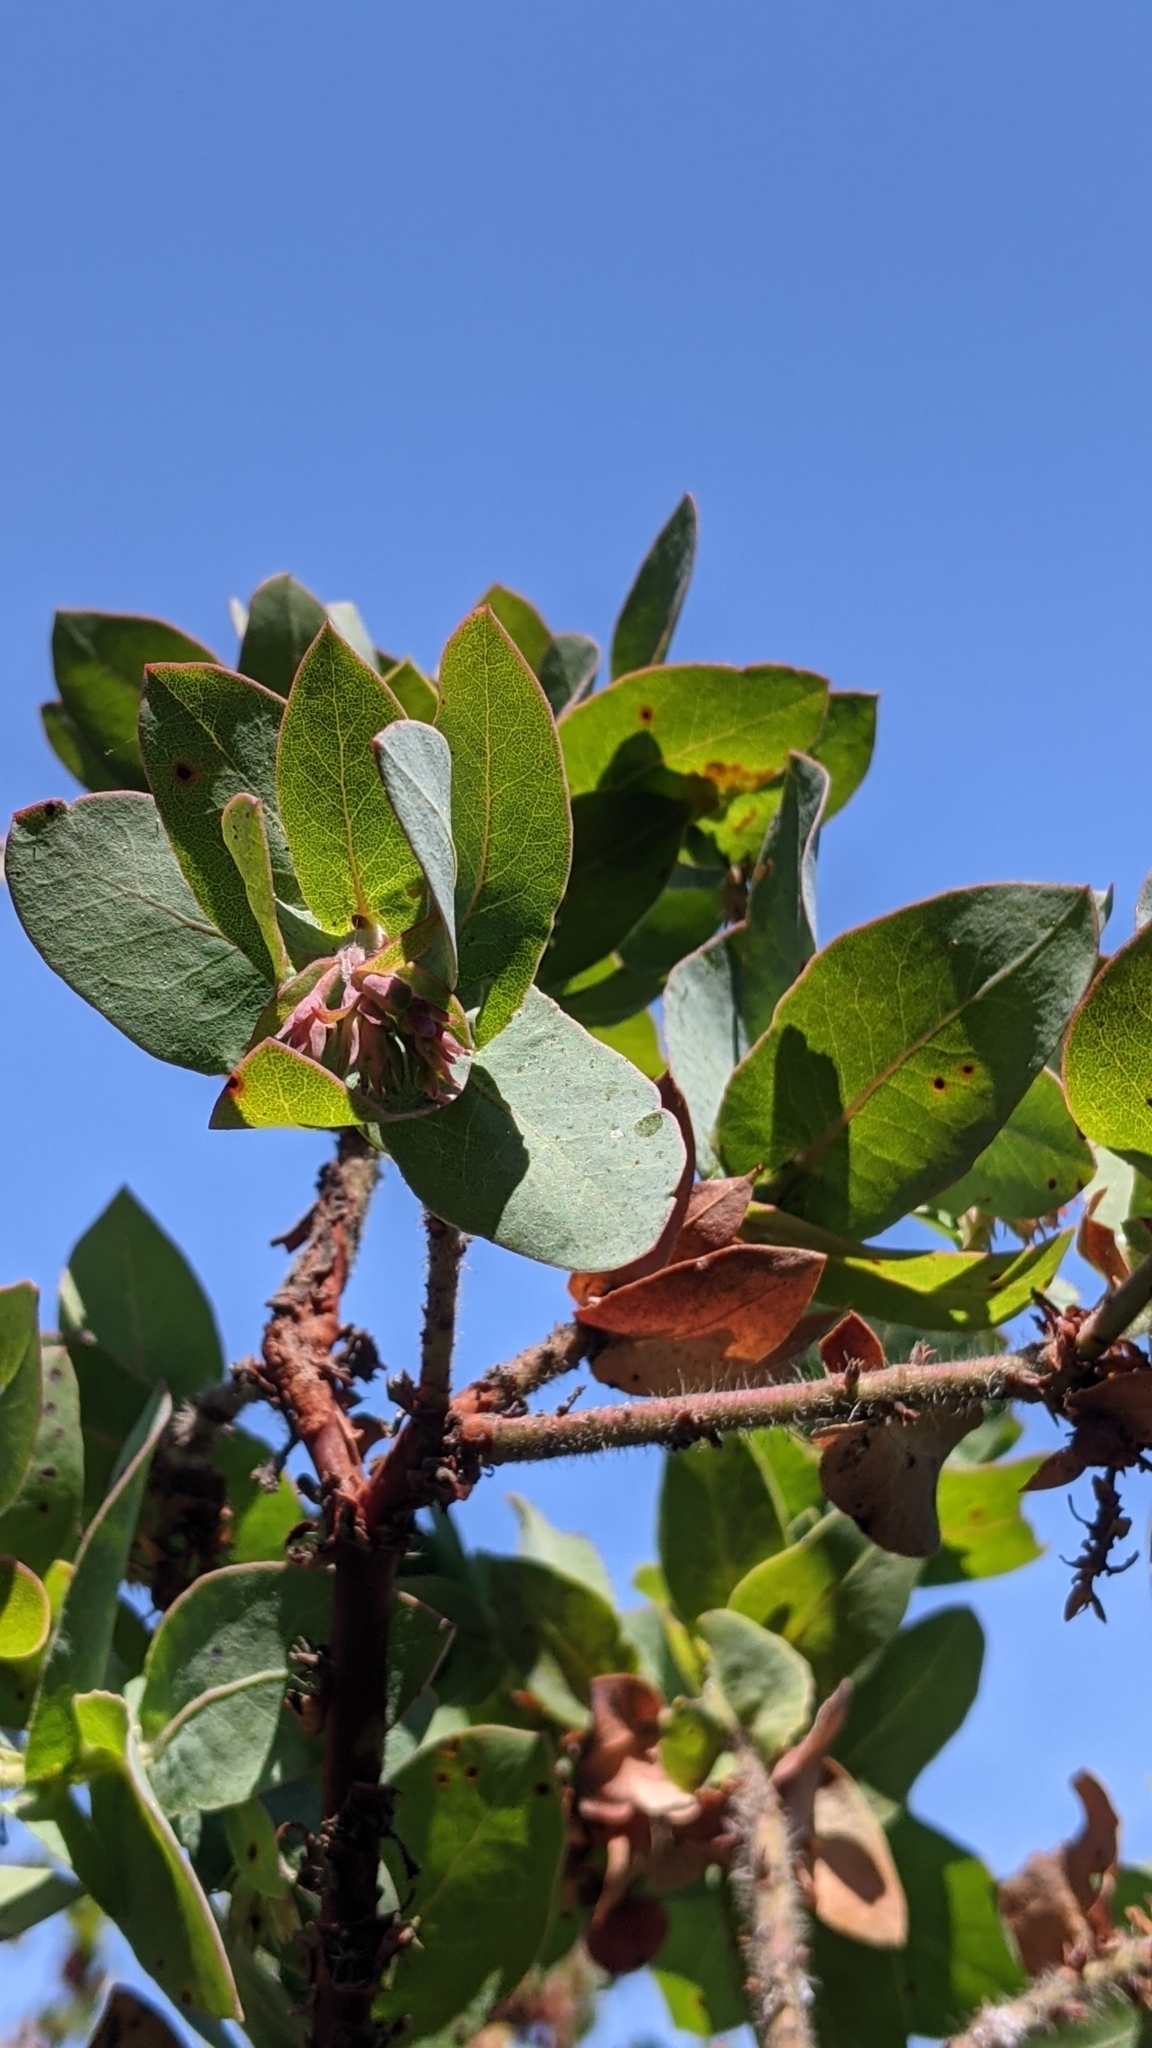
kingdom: Plantae
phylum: Tracheophyta
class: Magnoliopsida
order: Ericales
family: Ericaceae
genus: Arctostaphylos
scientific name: Arctostaphylos pallida
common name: Pallid manzanita
